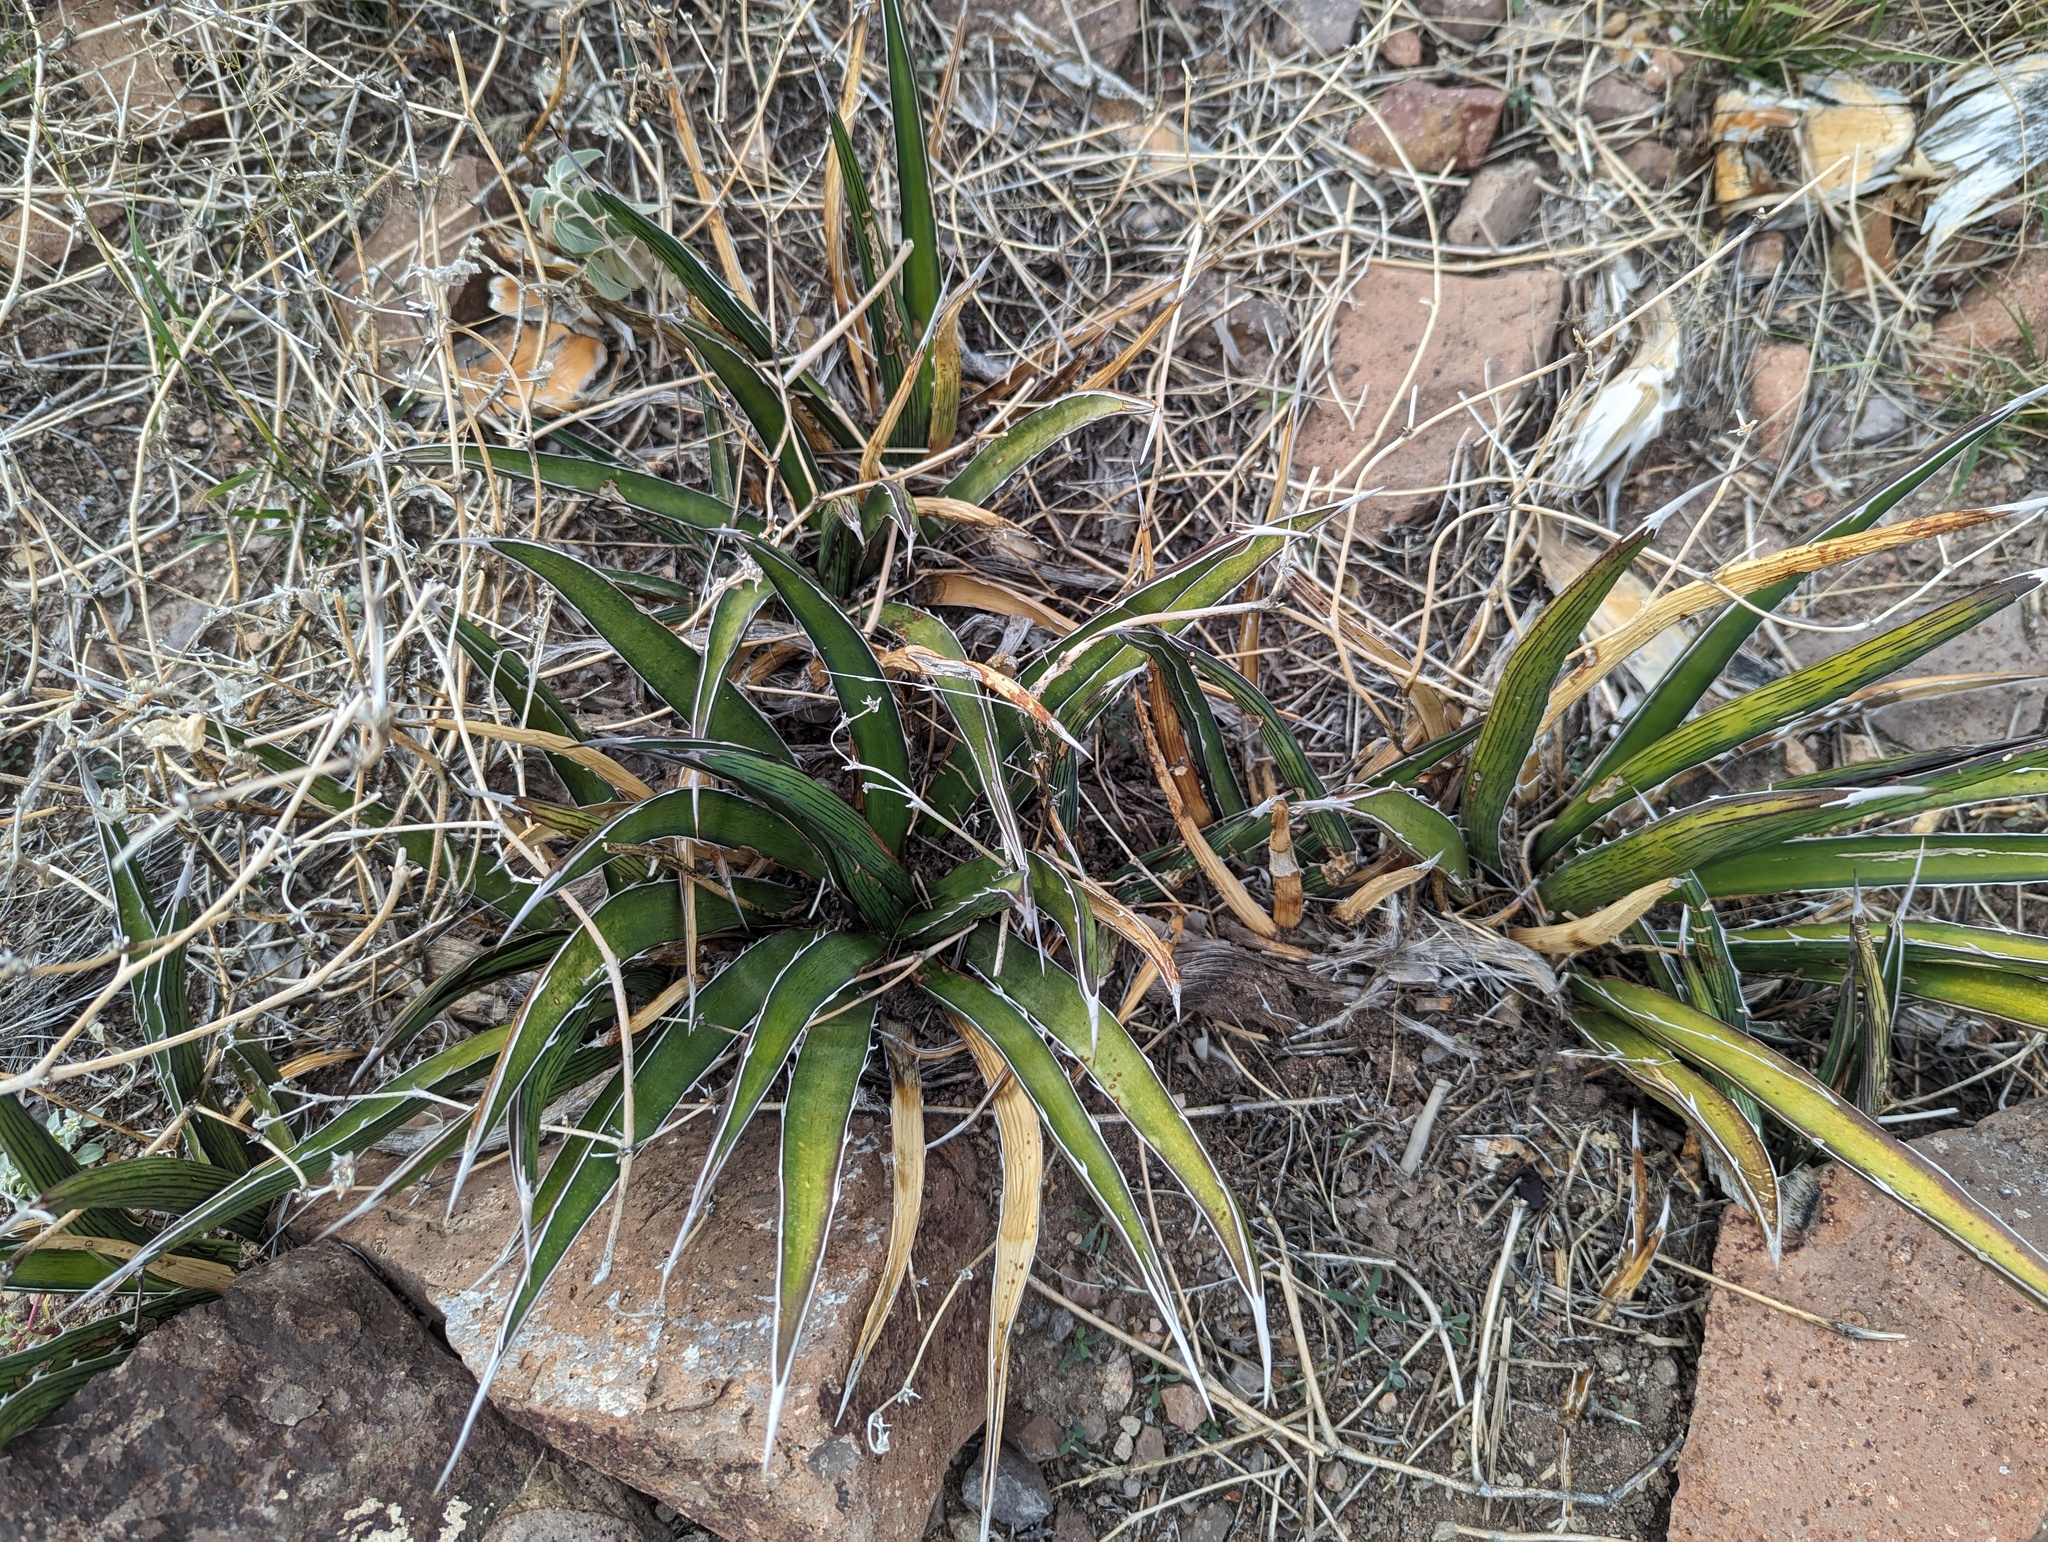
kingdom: Plantae
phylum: Tracheophyta
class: Liliopsida
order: Asparagales
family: Asparagaceae
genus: Agave
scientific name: Agave lechuguilla
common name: Lecheguilla agave
